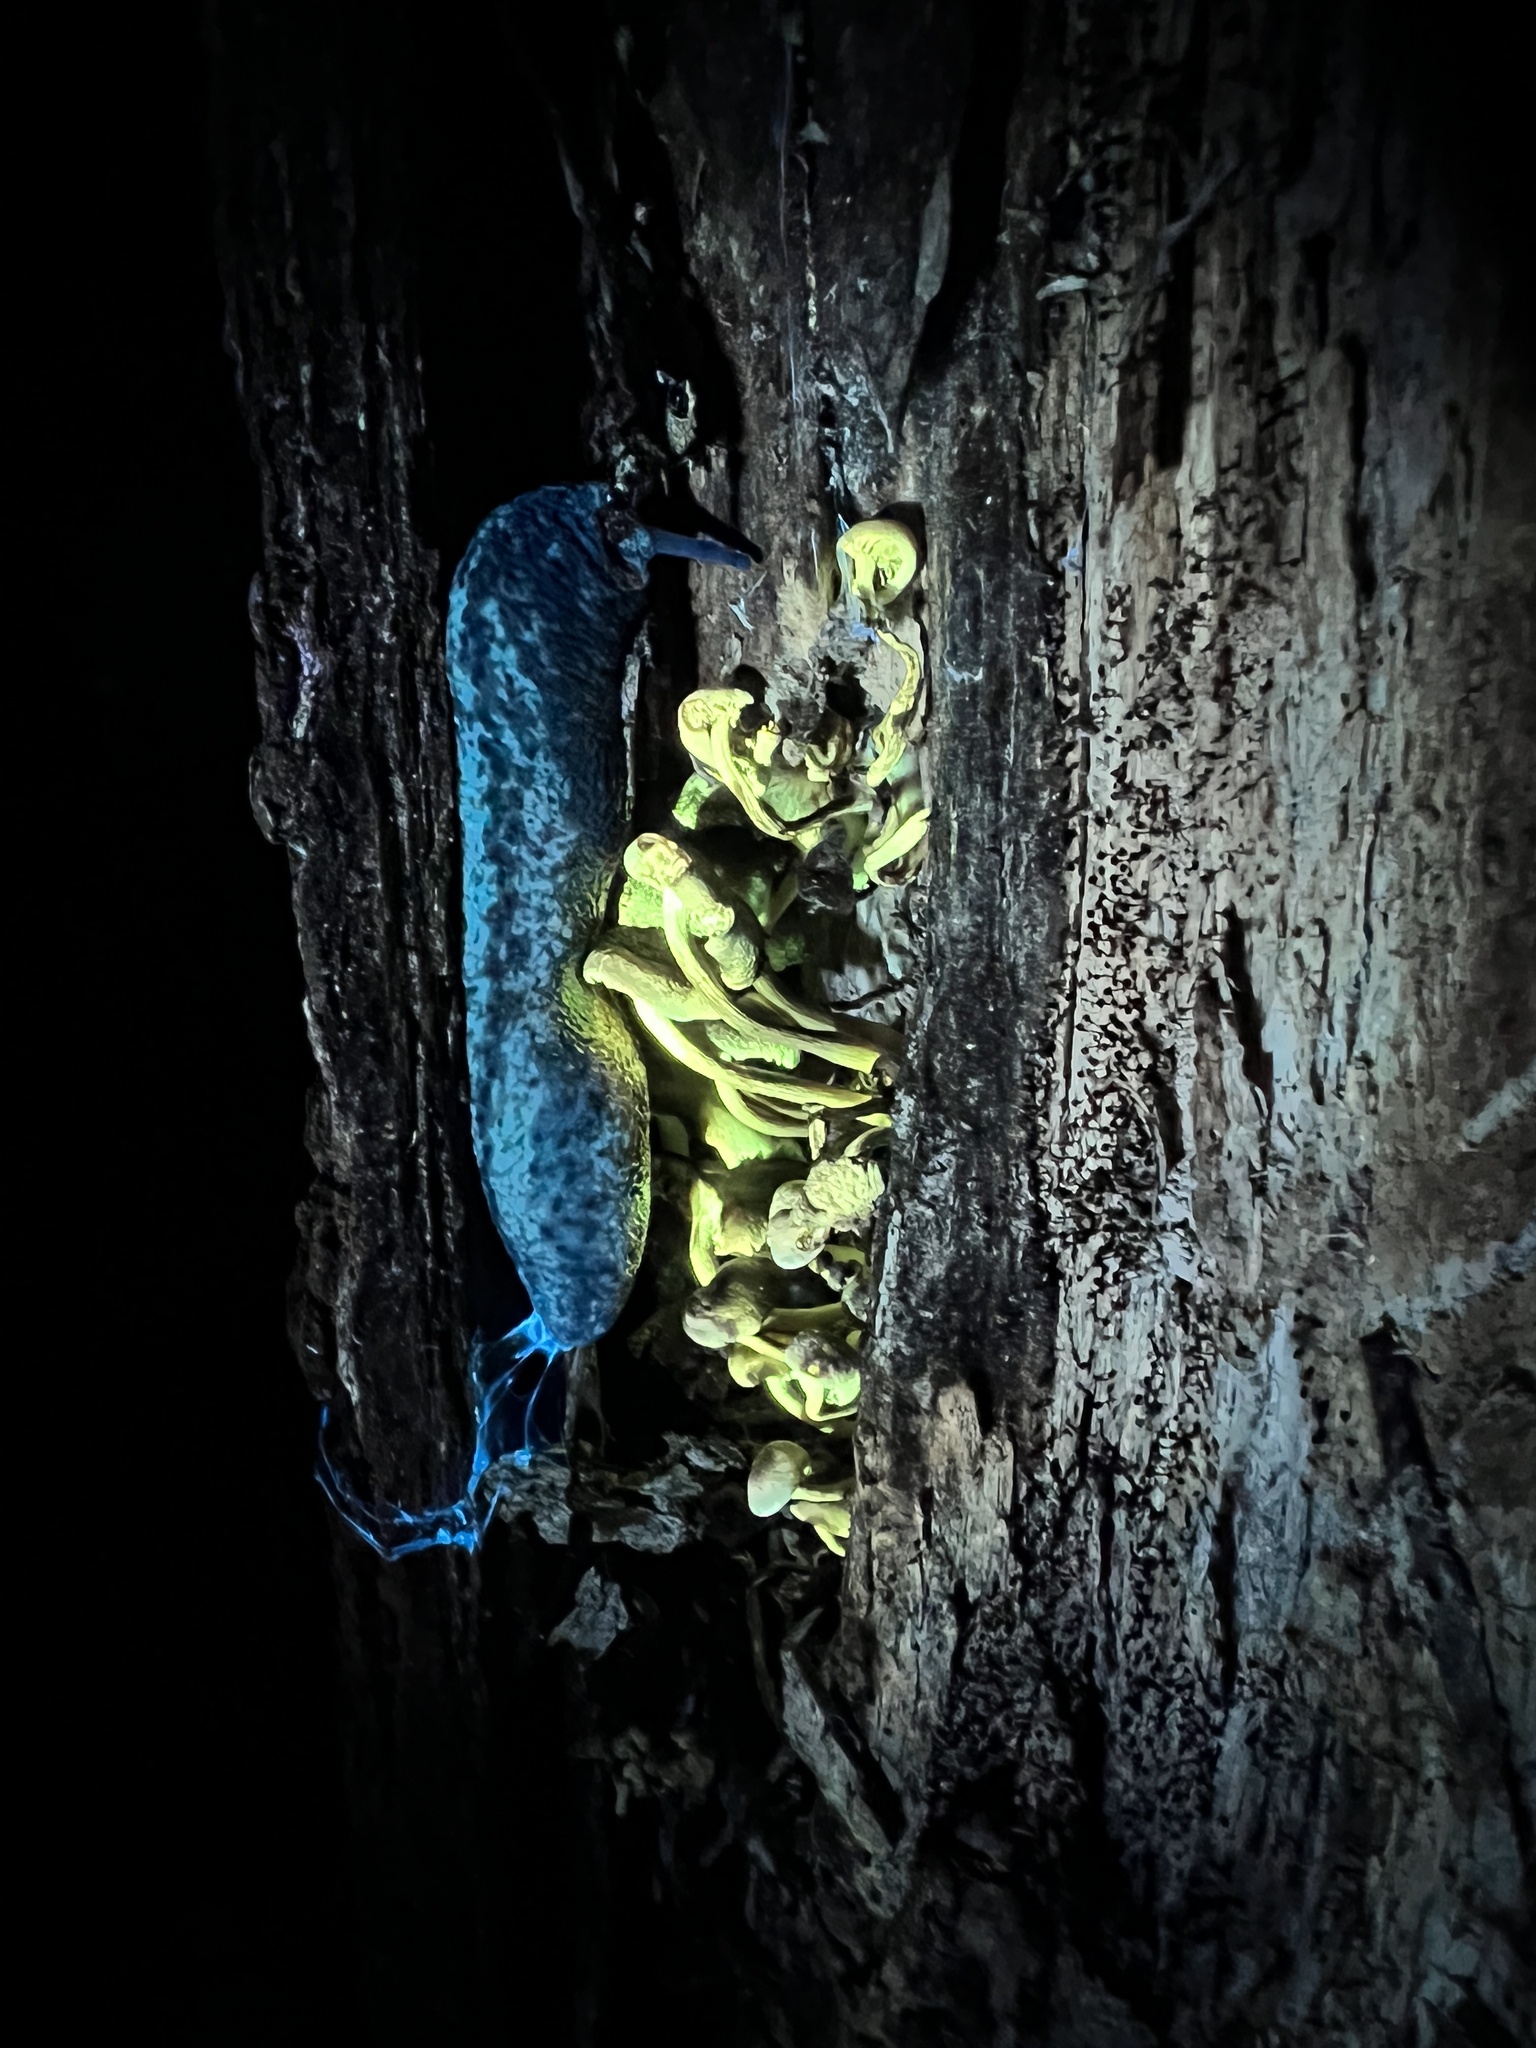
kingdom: Fungi
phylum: Basidiomycota
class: Agaricomycetes
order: Agaricales
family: Strophariaceae
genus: Hypholoma
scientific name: Hypholoma fasciculare
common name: Sulphur tuft
